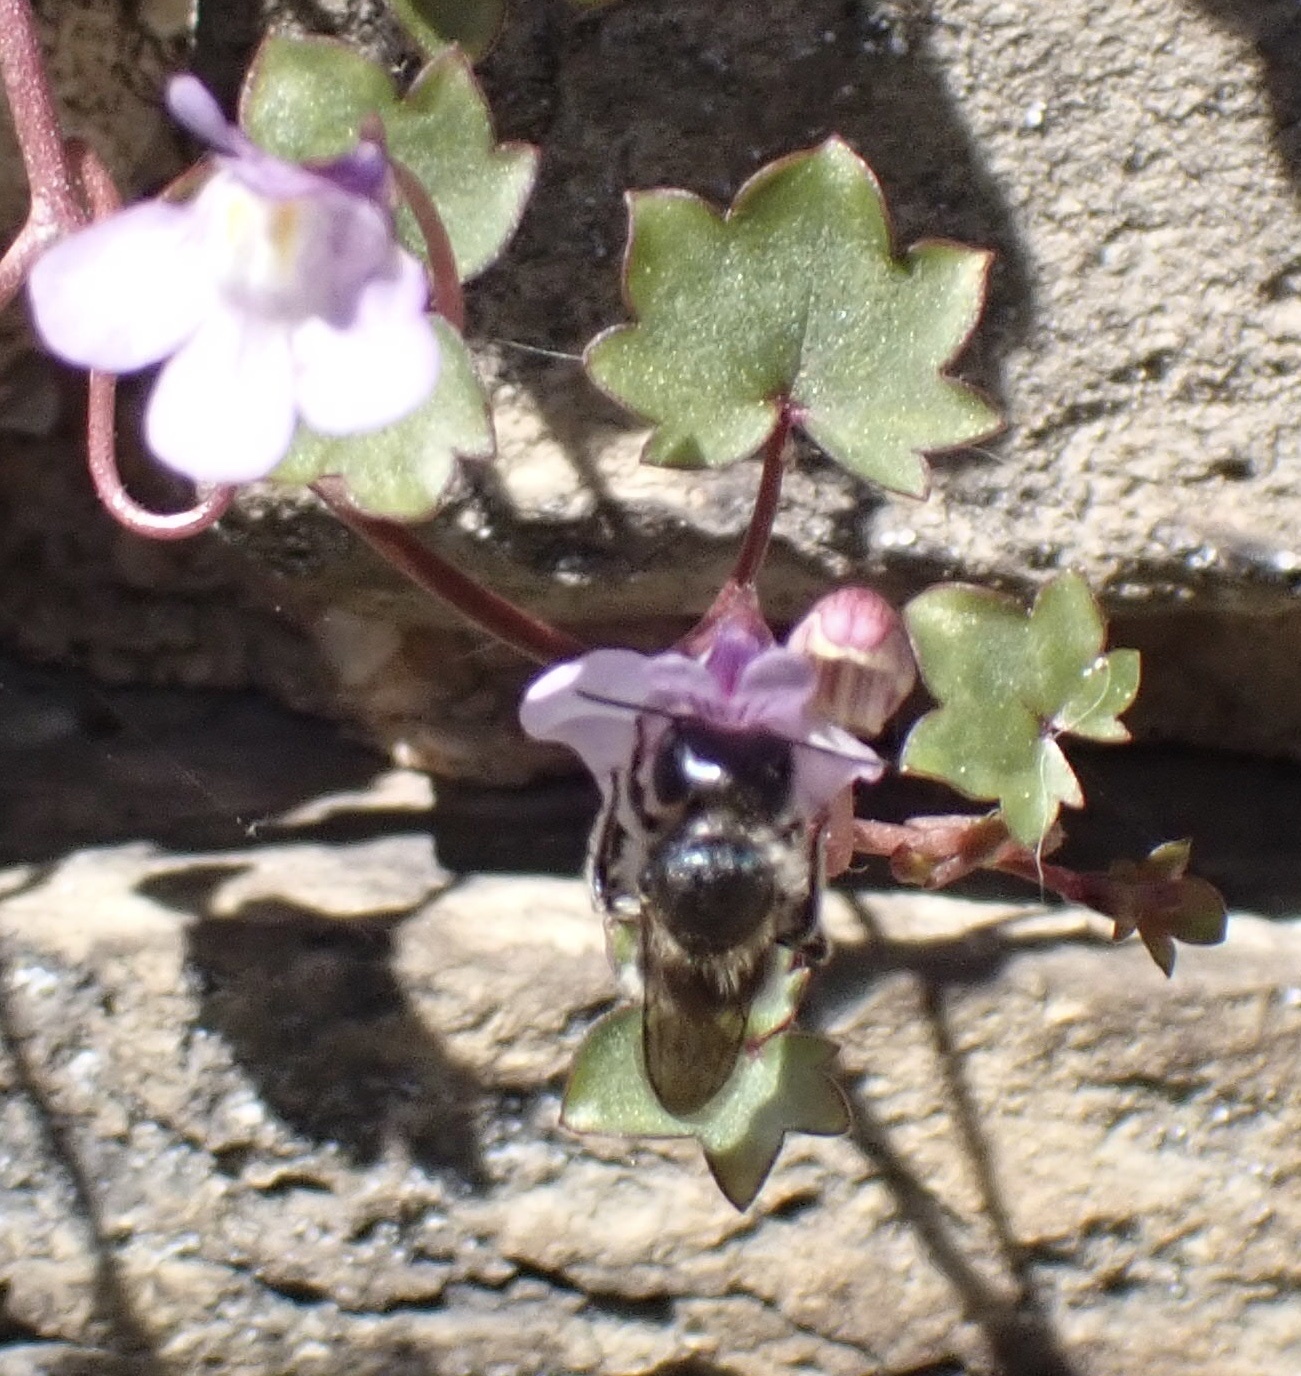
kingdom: Animalia
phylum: Arthropoda
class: Insecta
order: Hymenoptera
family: Megachilidae
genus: Osmia
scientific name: Osmia caerulescens
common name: Blue mason bee
